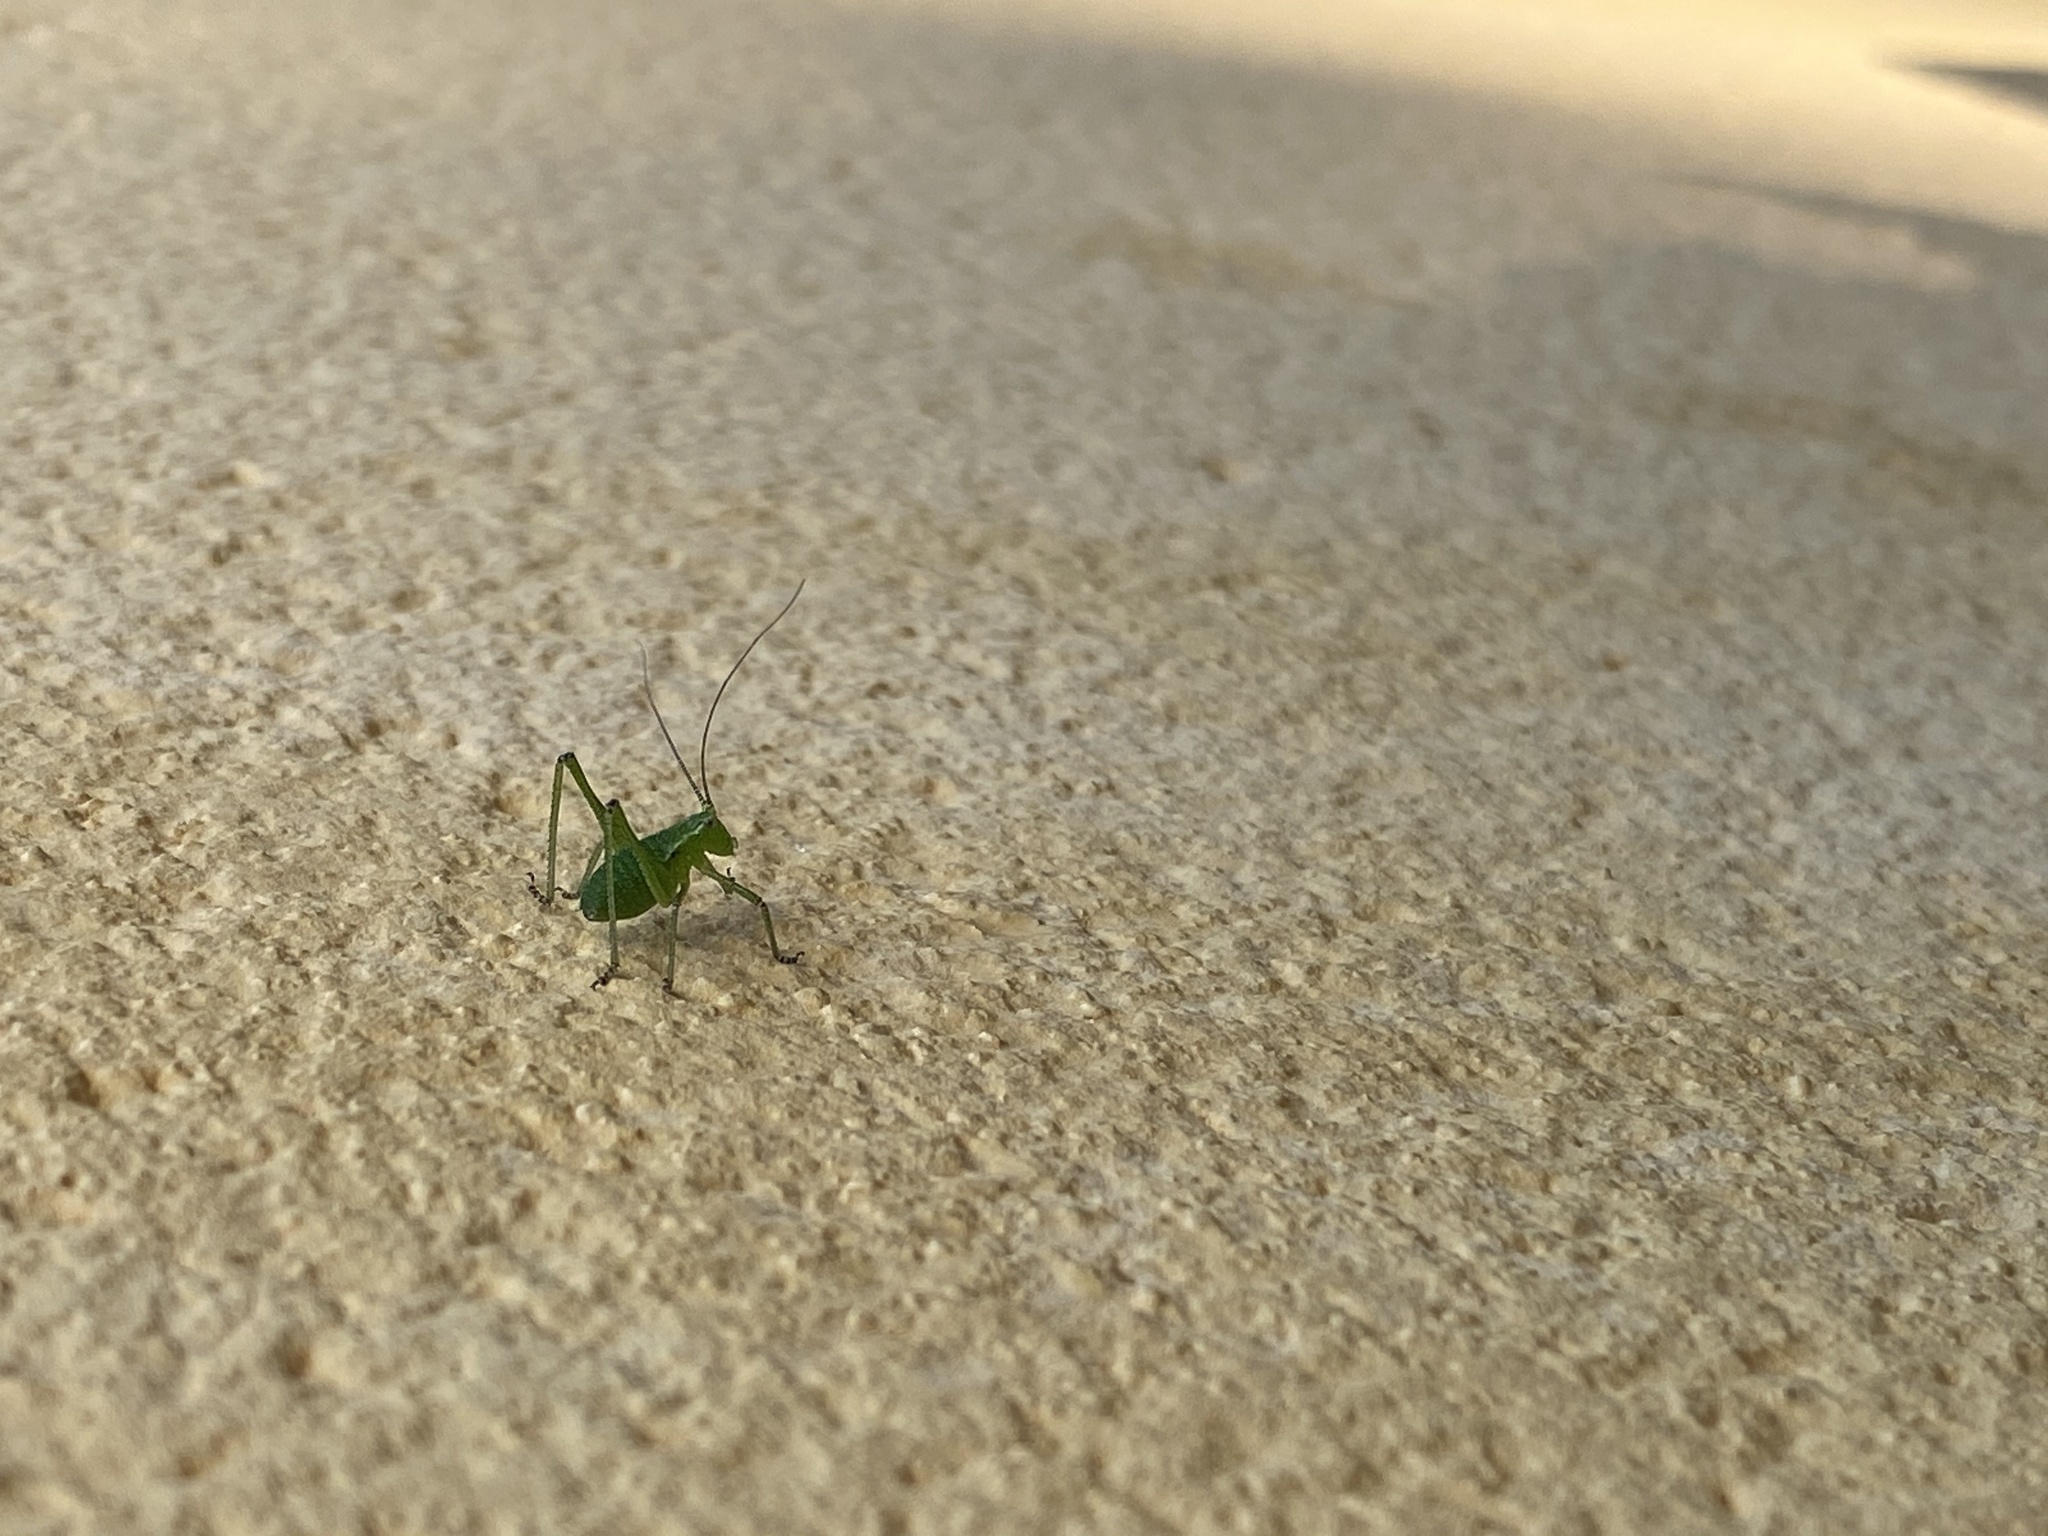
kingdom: Animalia
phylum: Arthropoda
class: Insecta
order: Orthoptera
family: Tettigoniidae
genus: Leptophyes
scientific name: Leptophyes punctatissima
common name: Speckled bush-cricket
